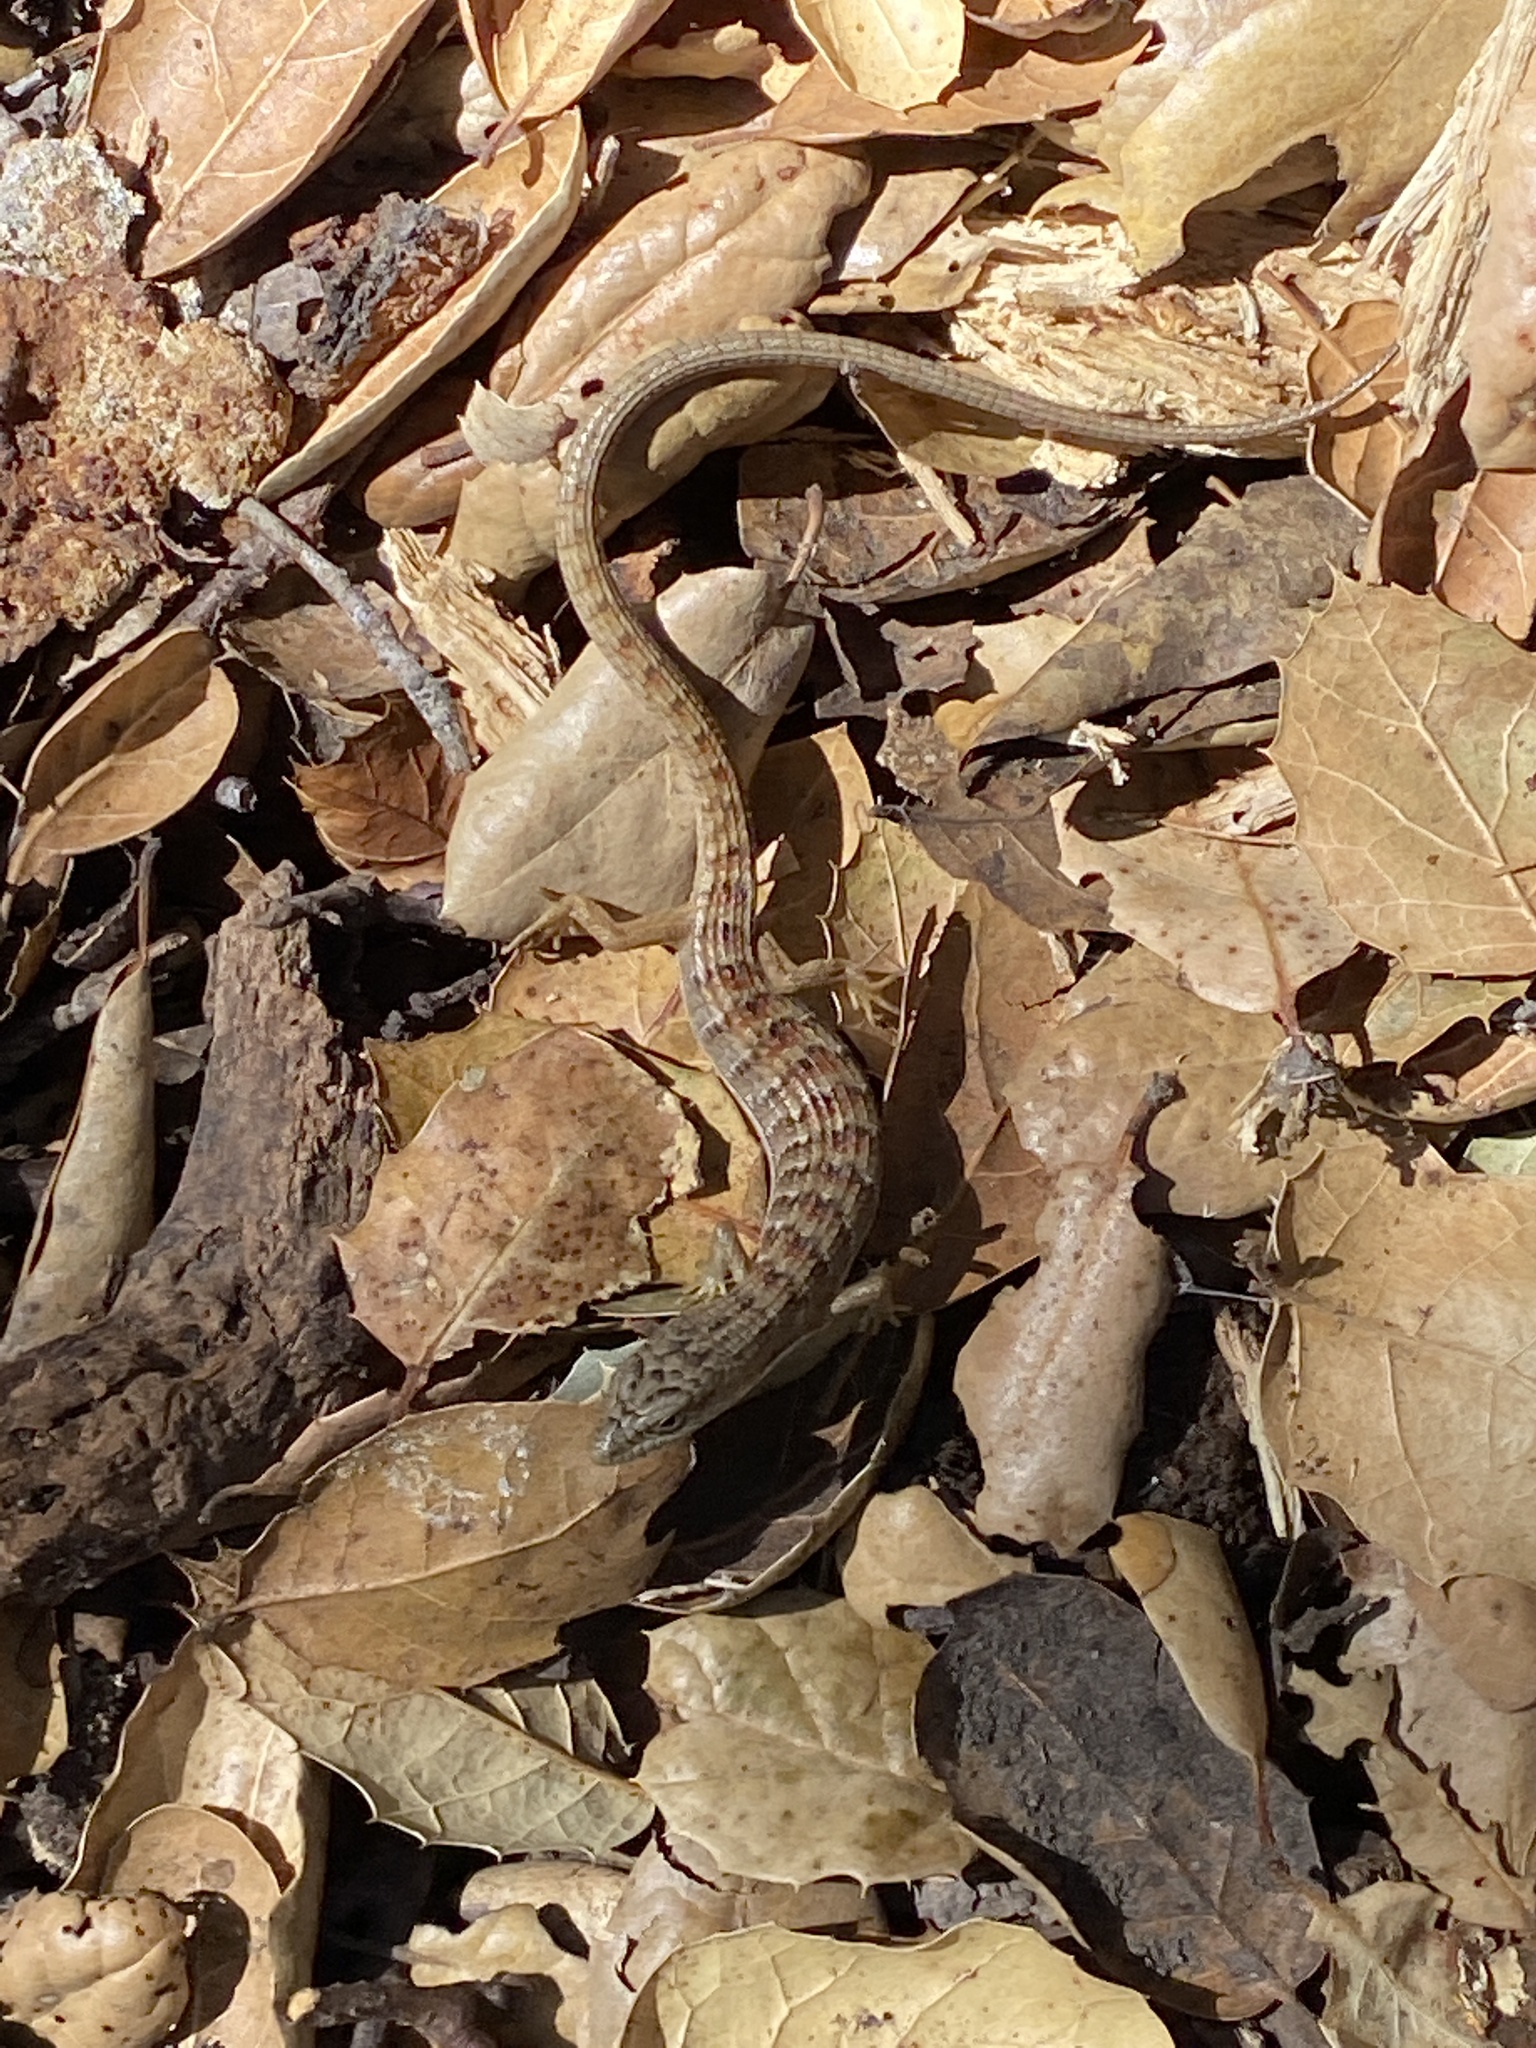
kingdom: Animalia
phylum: Chordata
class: Squamata
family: Anguidae
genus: Elgaria
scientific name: Elgaria multicarinata
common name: Southern alligator lizard
